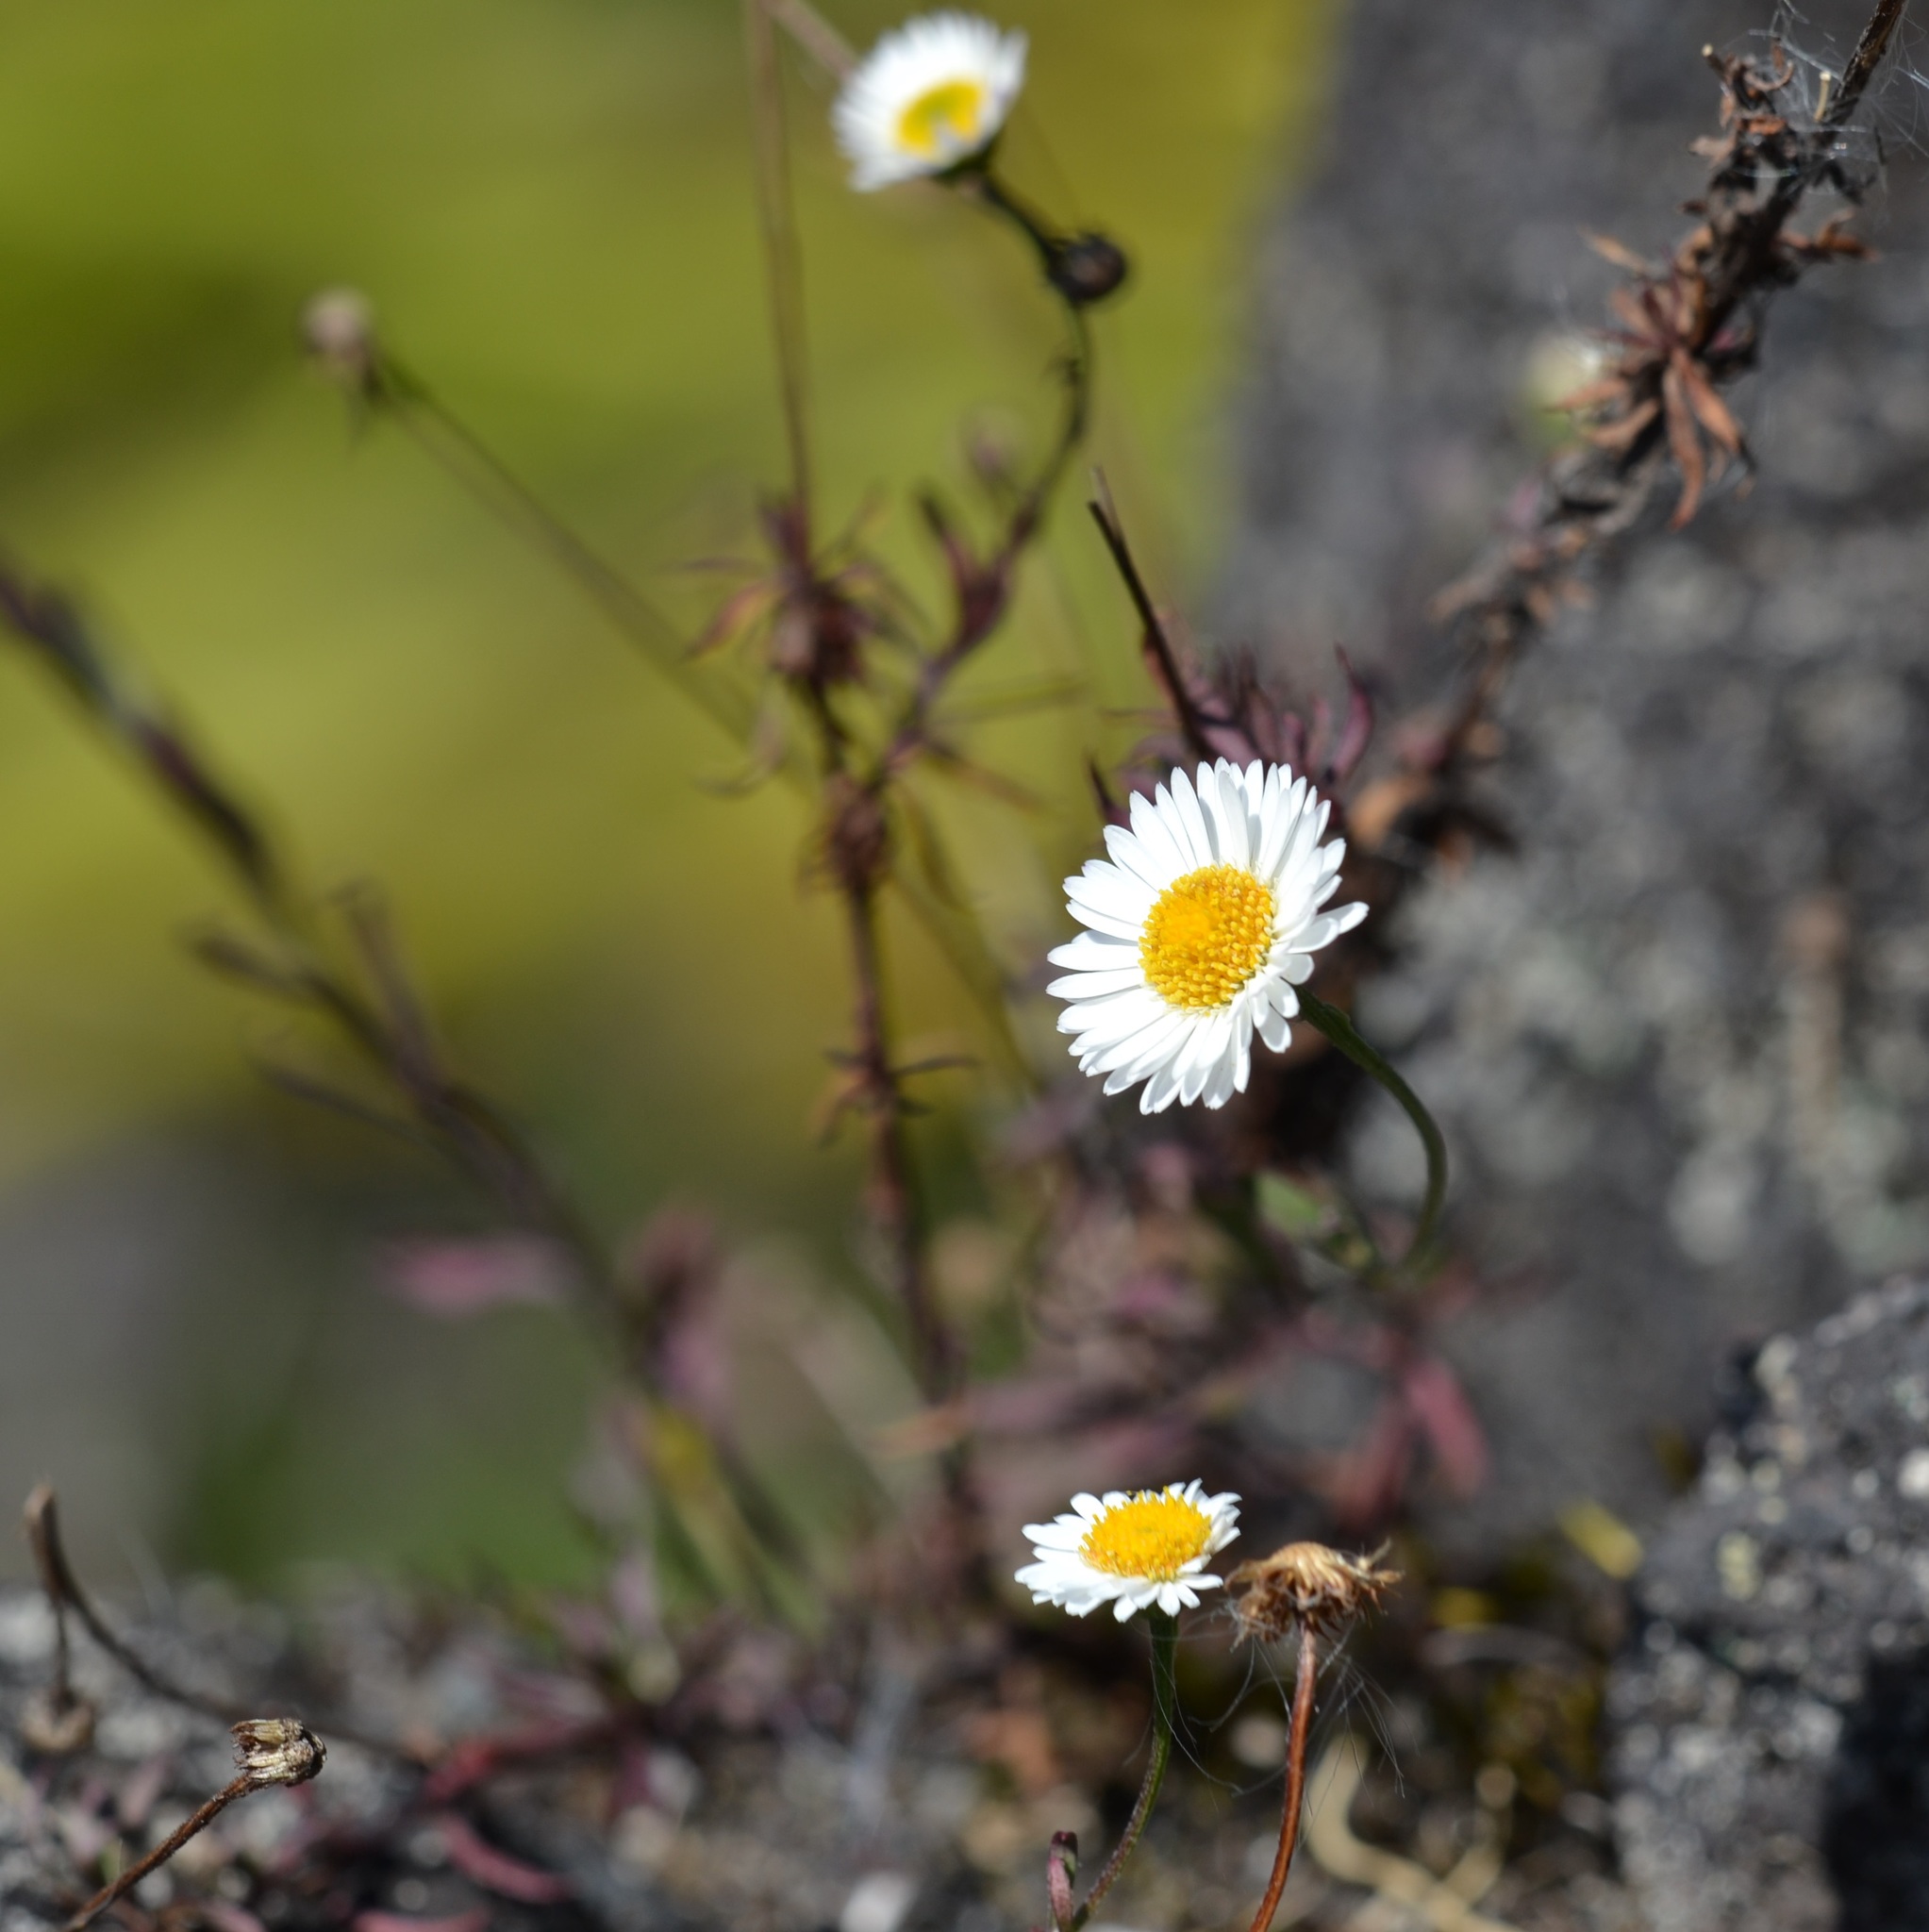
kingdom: Plantae
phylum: Tracheophyta
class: Magnoliopsida
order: Asterales
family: Asteraceae
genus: Erigeron
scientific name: Erigeron karvinskianus
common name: Mexican fleabane
